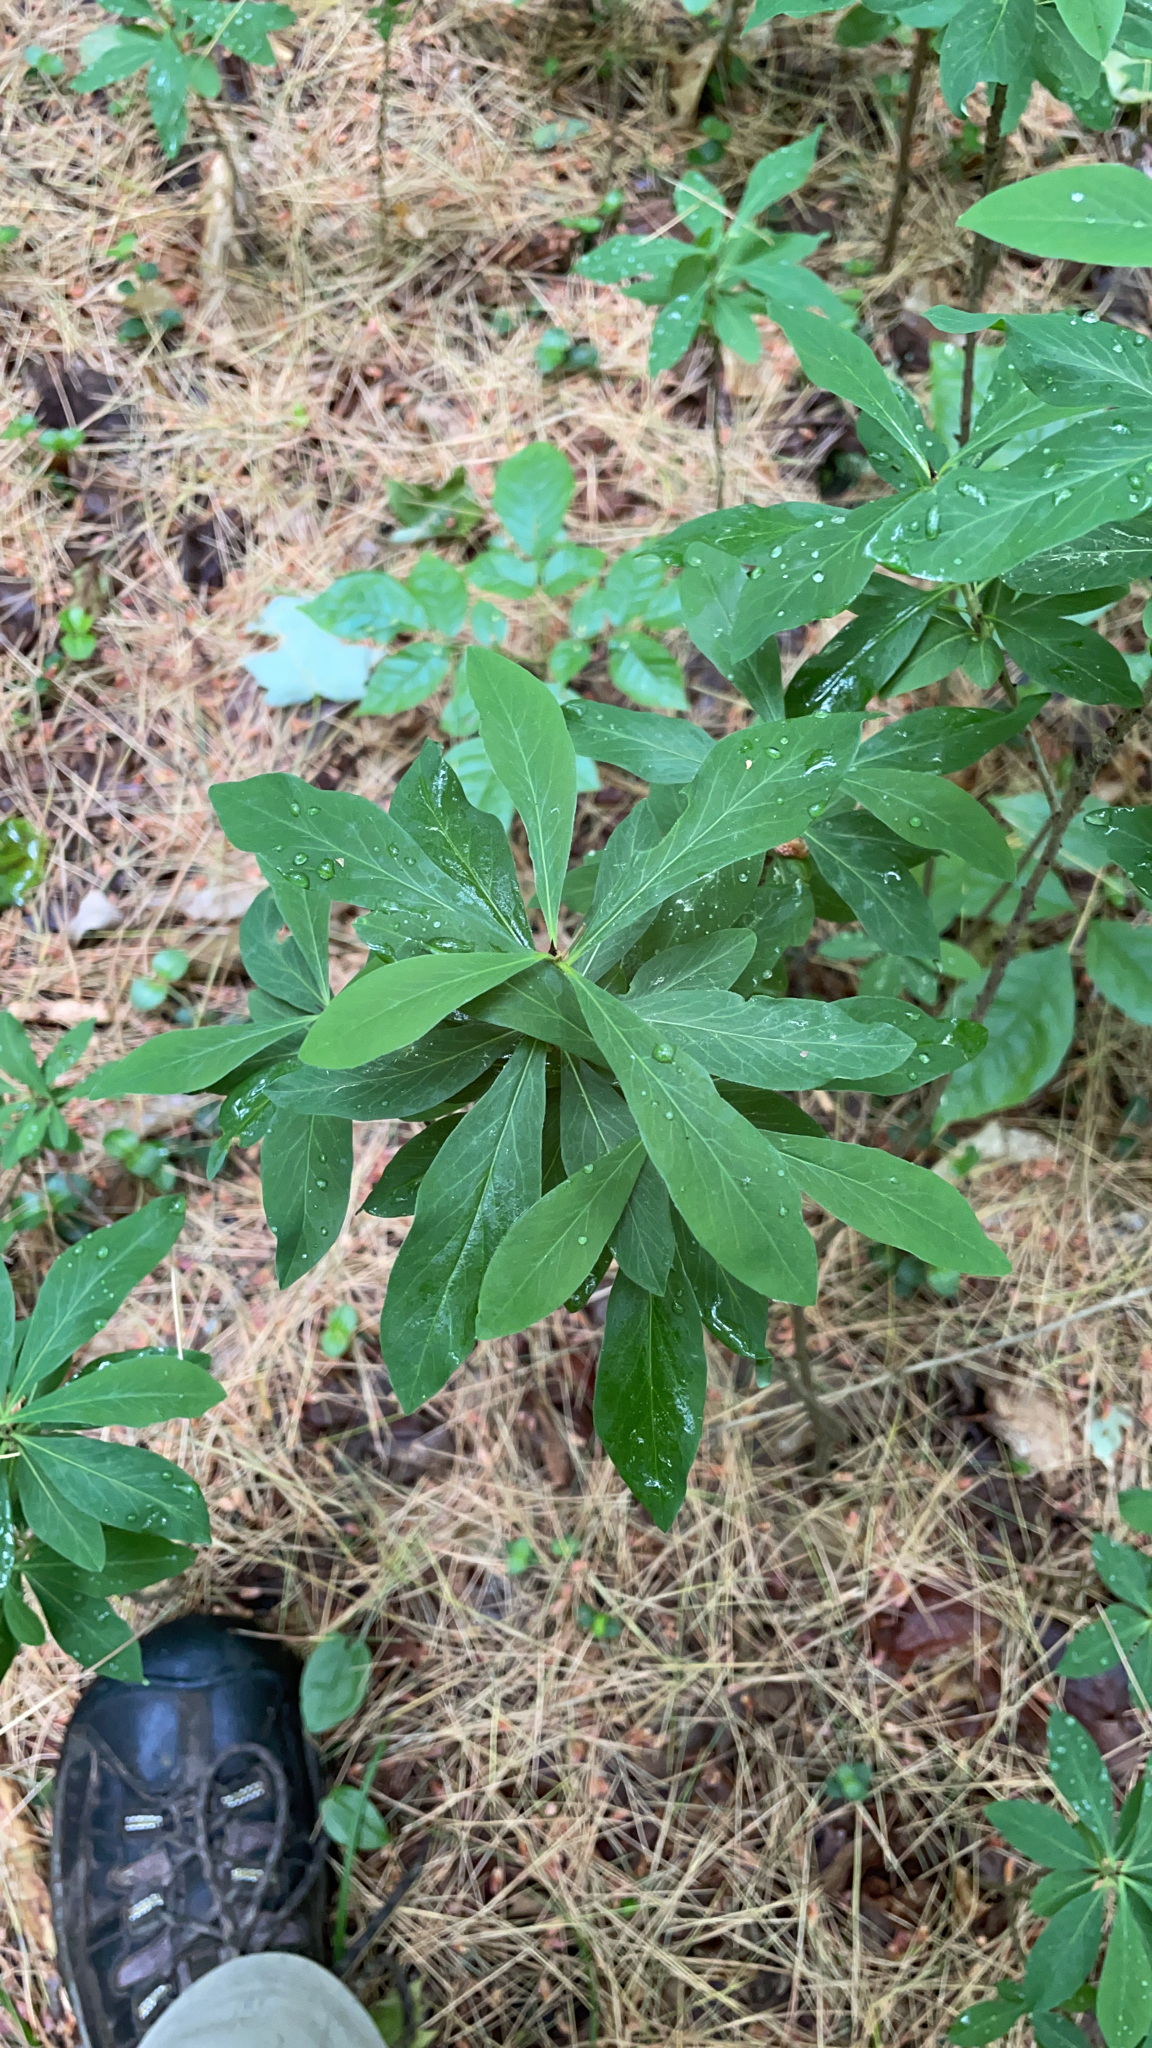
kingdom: Plantae
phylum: Tracheophyta
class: Magnoliopsida
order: Malvales
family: Thymelaeaceae
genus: Daphne
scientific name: Daphne mezereum
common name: Mezereon
